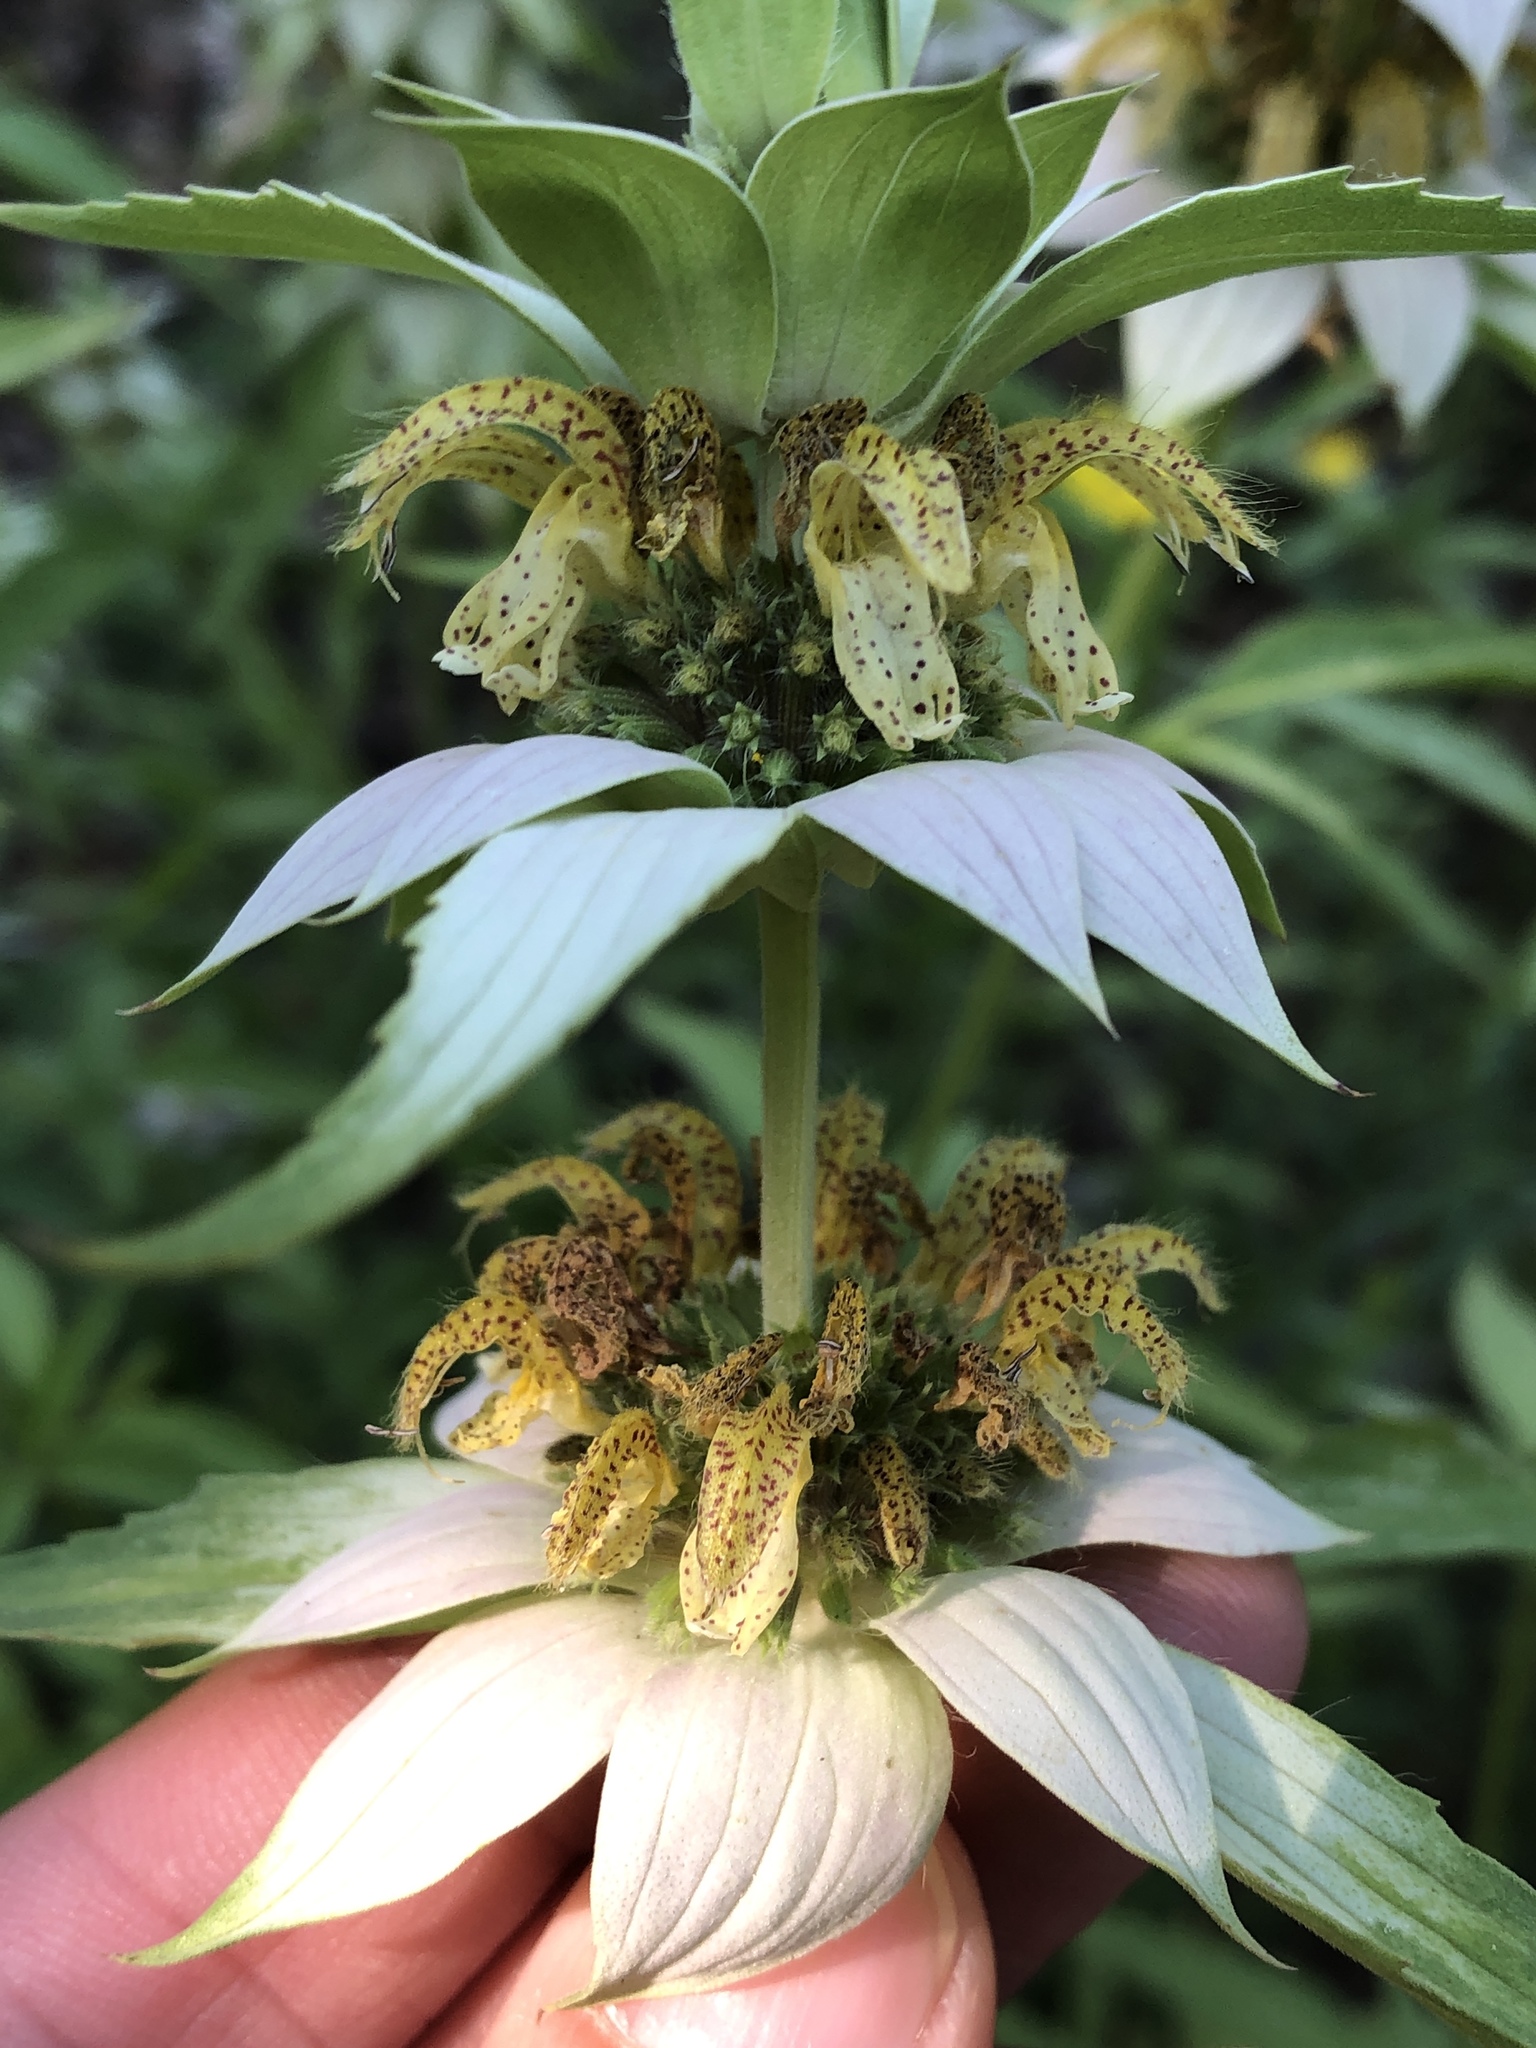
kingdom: Plantae
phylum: Tracheophyta
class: Magnoliopsida
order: Lamiales
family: Lamiaceae
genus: Monarda
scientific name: Monarda punctata
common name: Dotted monarda
